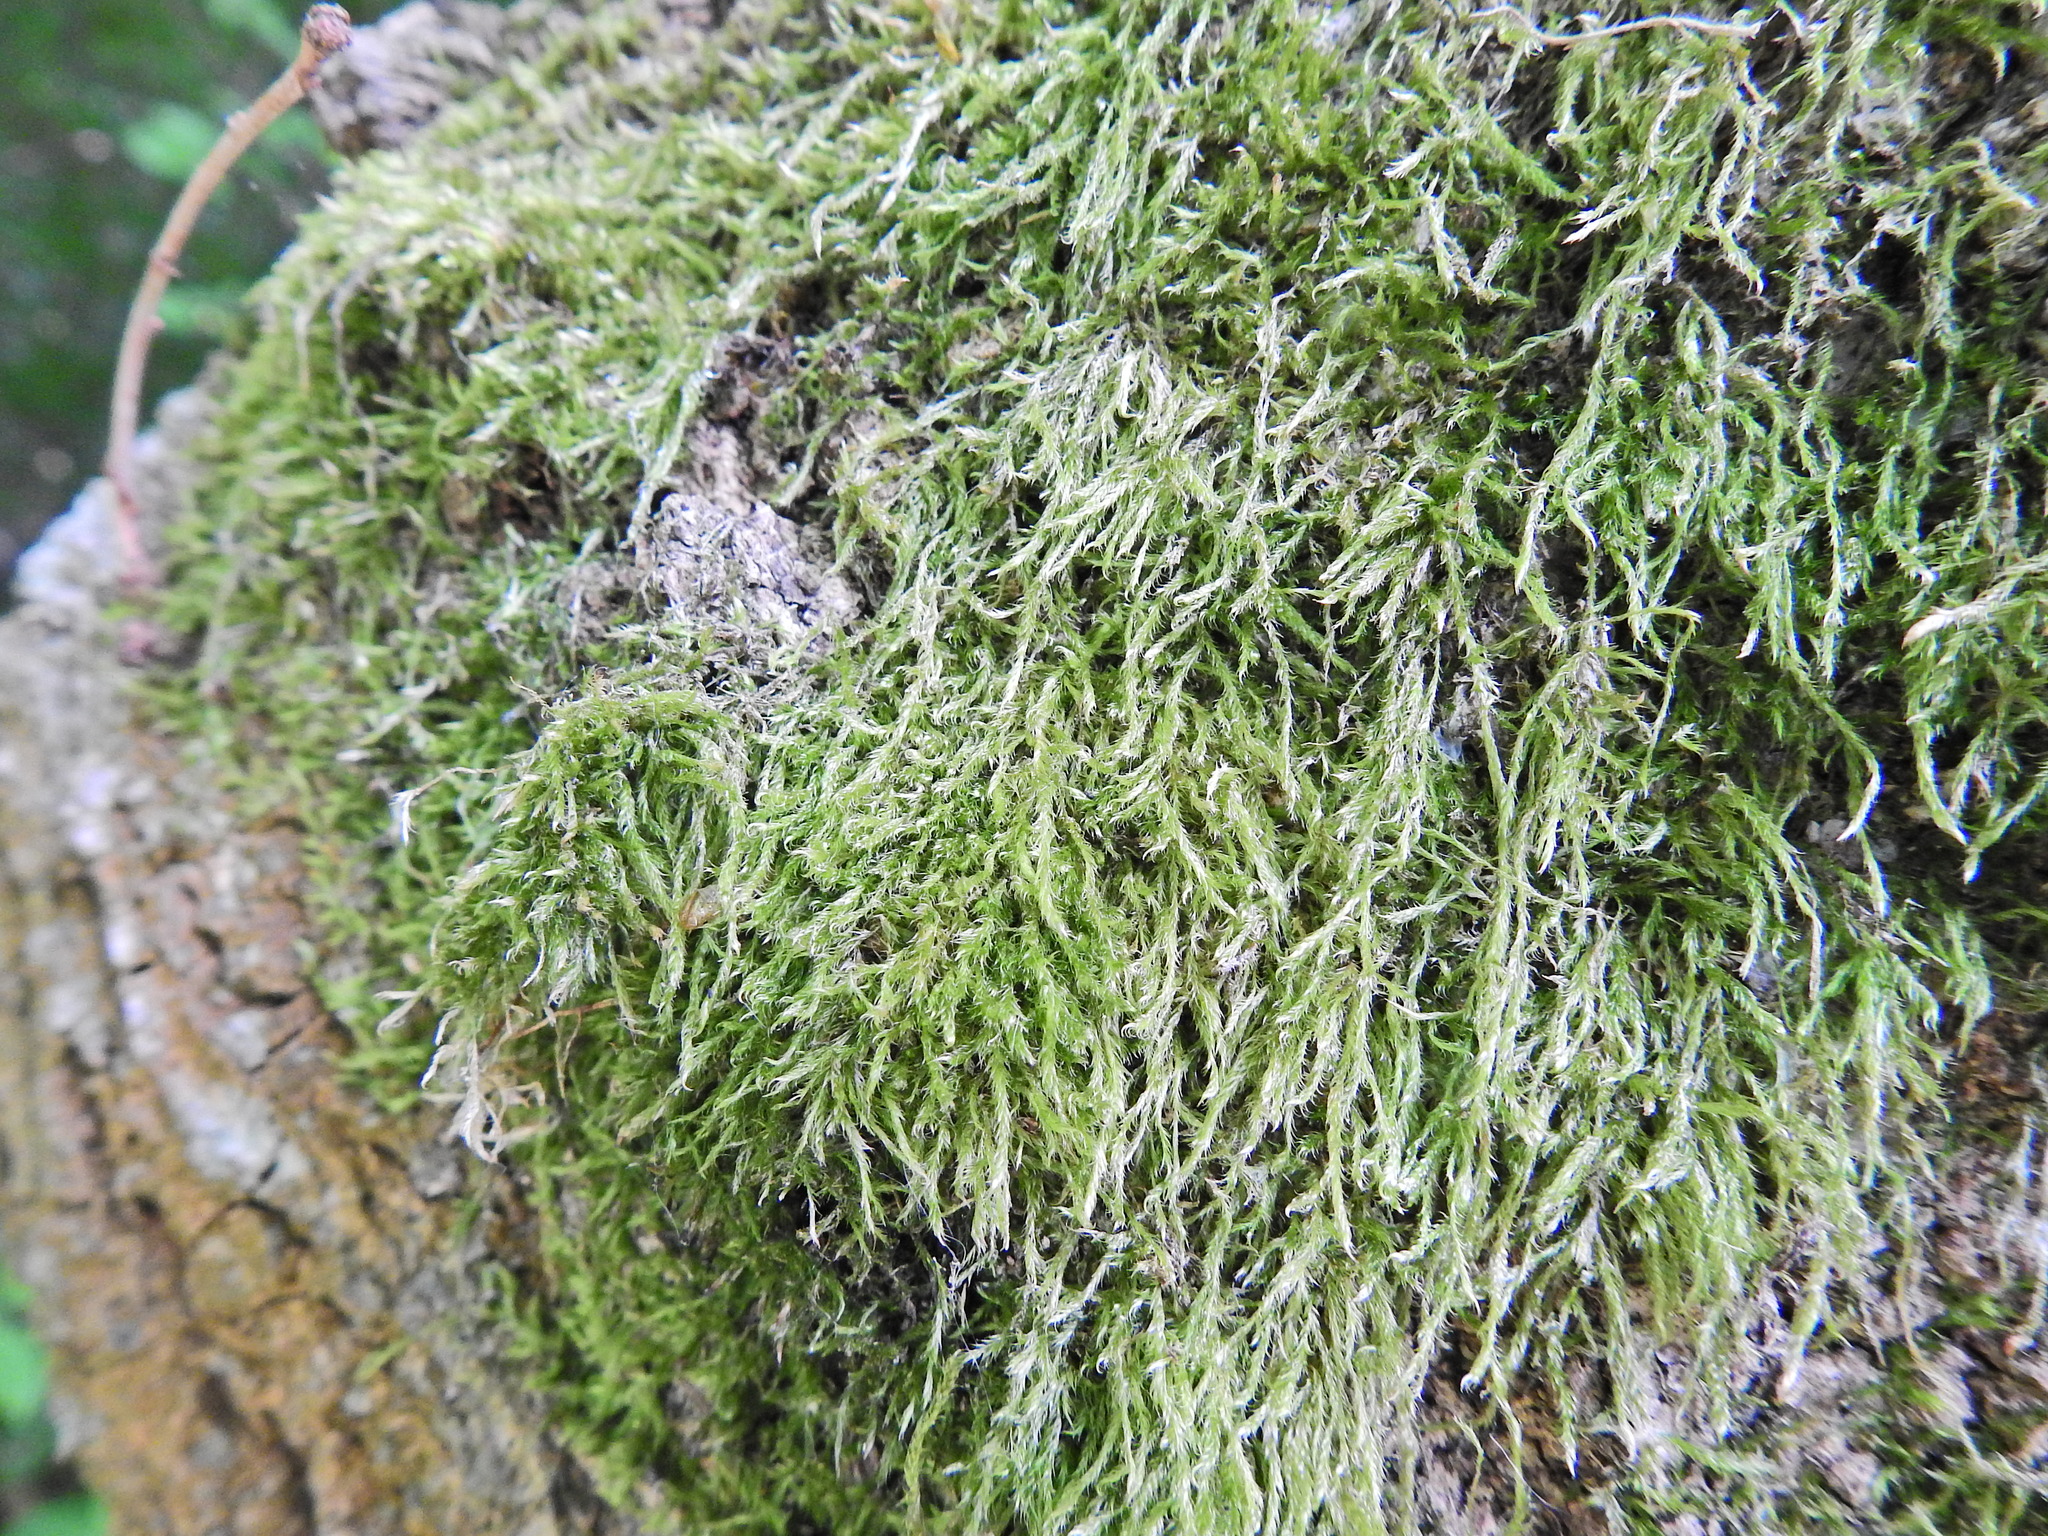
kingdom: Plantae
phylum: Bryophyta
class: Bryopsida
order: Hypnales
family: Hypnaceae
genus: Hypnum
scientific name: Hypnum cupressiforme
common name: Cypress-leaved plait-moss
